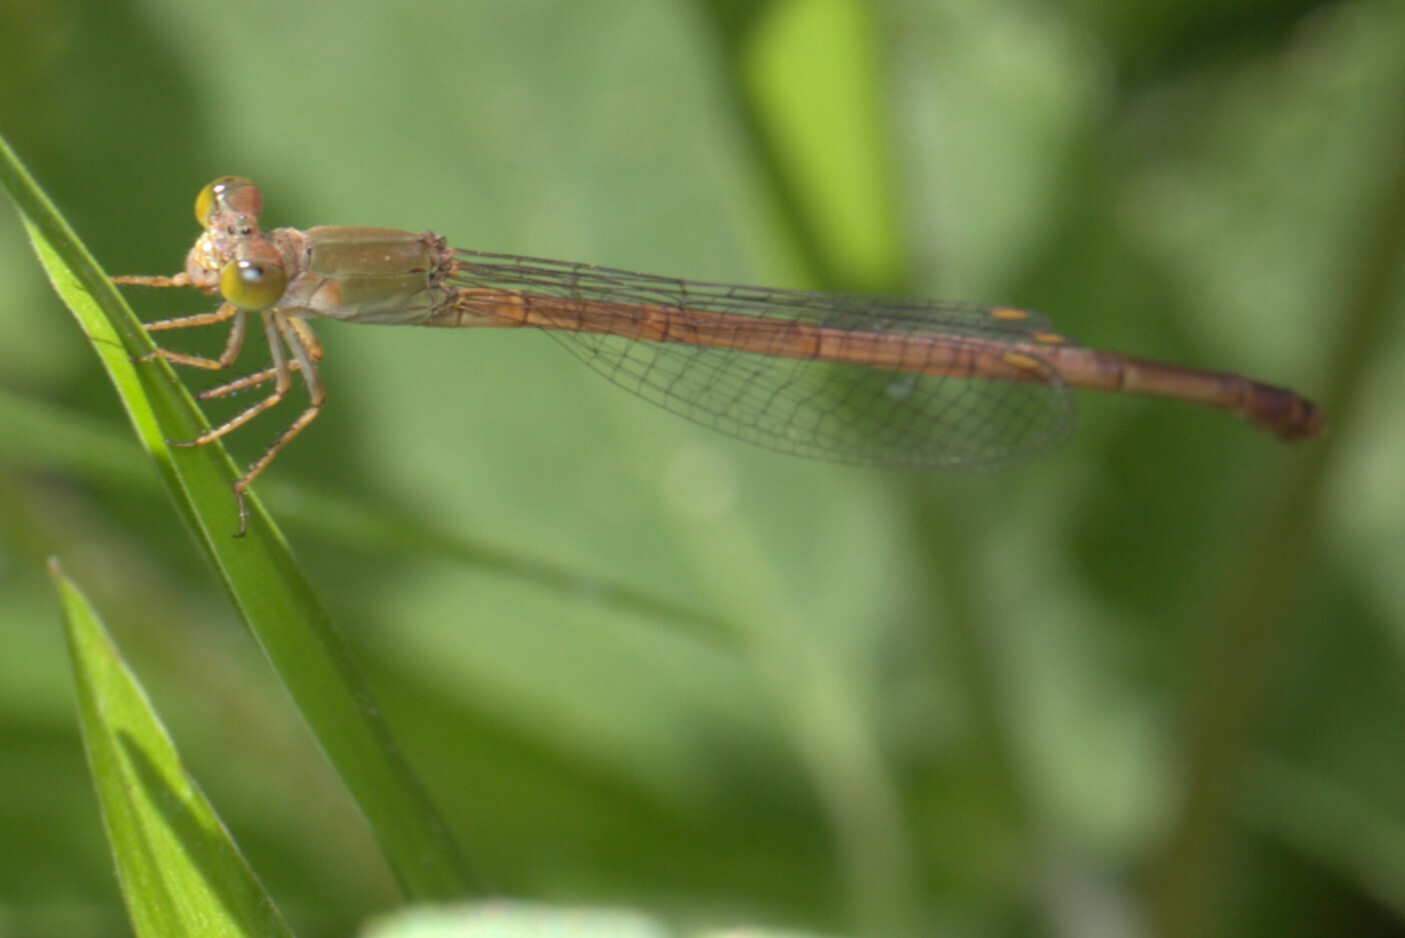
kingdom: Animalia
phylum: Arthropoda
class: Insecta
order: Odonata
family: Coenagrionidae
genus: Ceriagrion
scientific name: Ceriagrion aeruginosum
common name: Redtail
